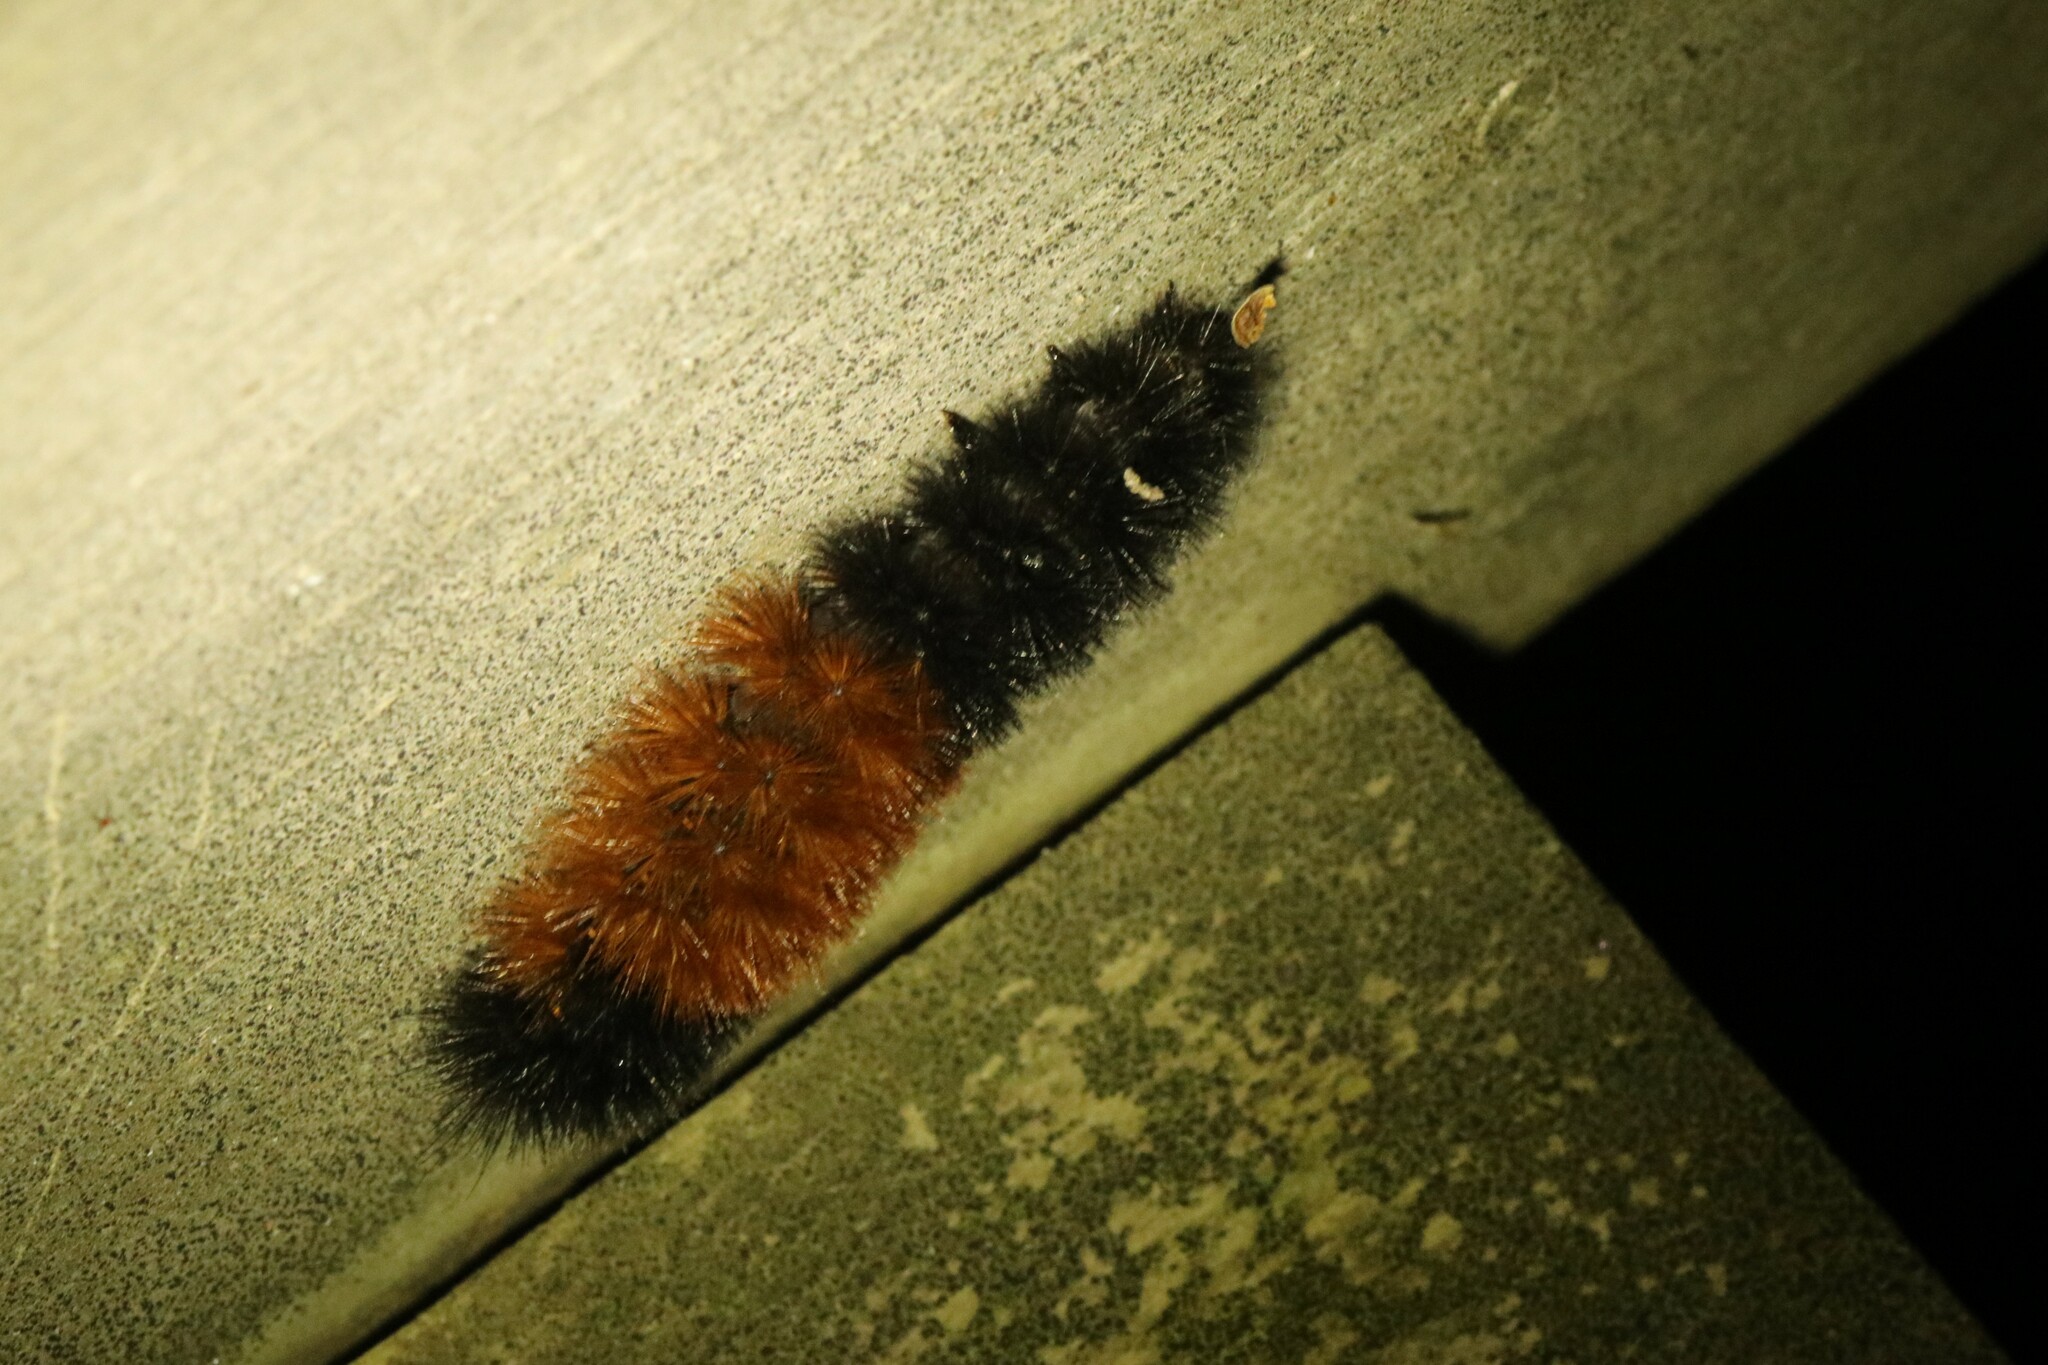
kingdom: Animalia
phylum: Arthropoda
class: Insecta
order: Lepidoptera
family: Erebidae
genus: Pyrrharctia
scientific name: Pyrrharctia isabella
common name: Isabella tiger moth
